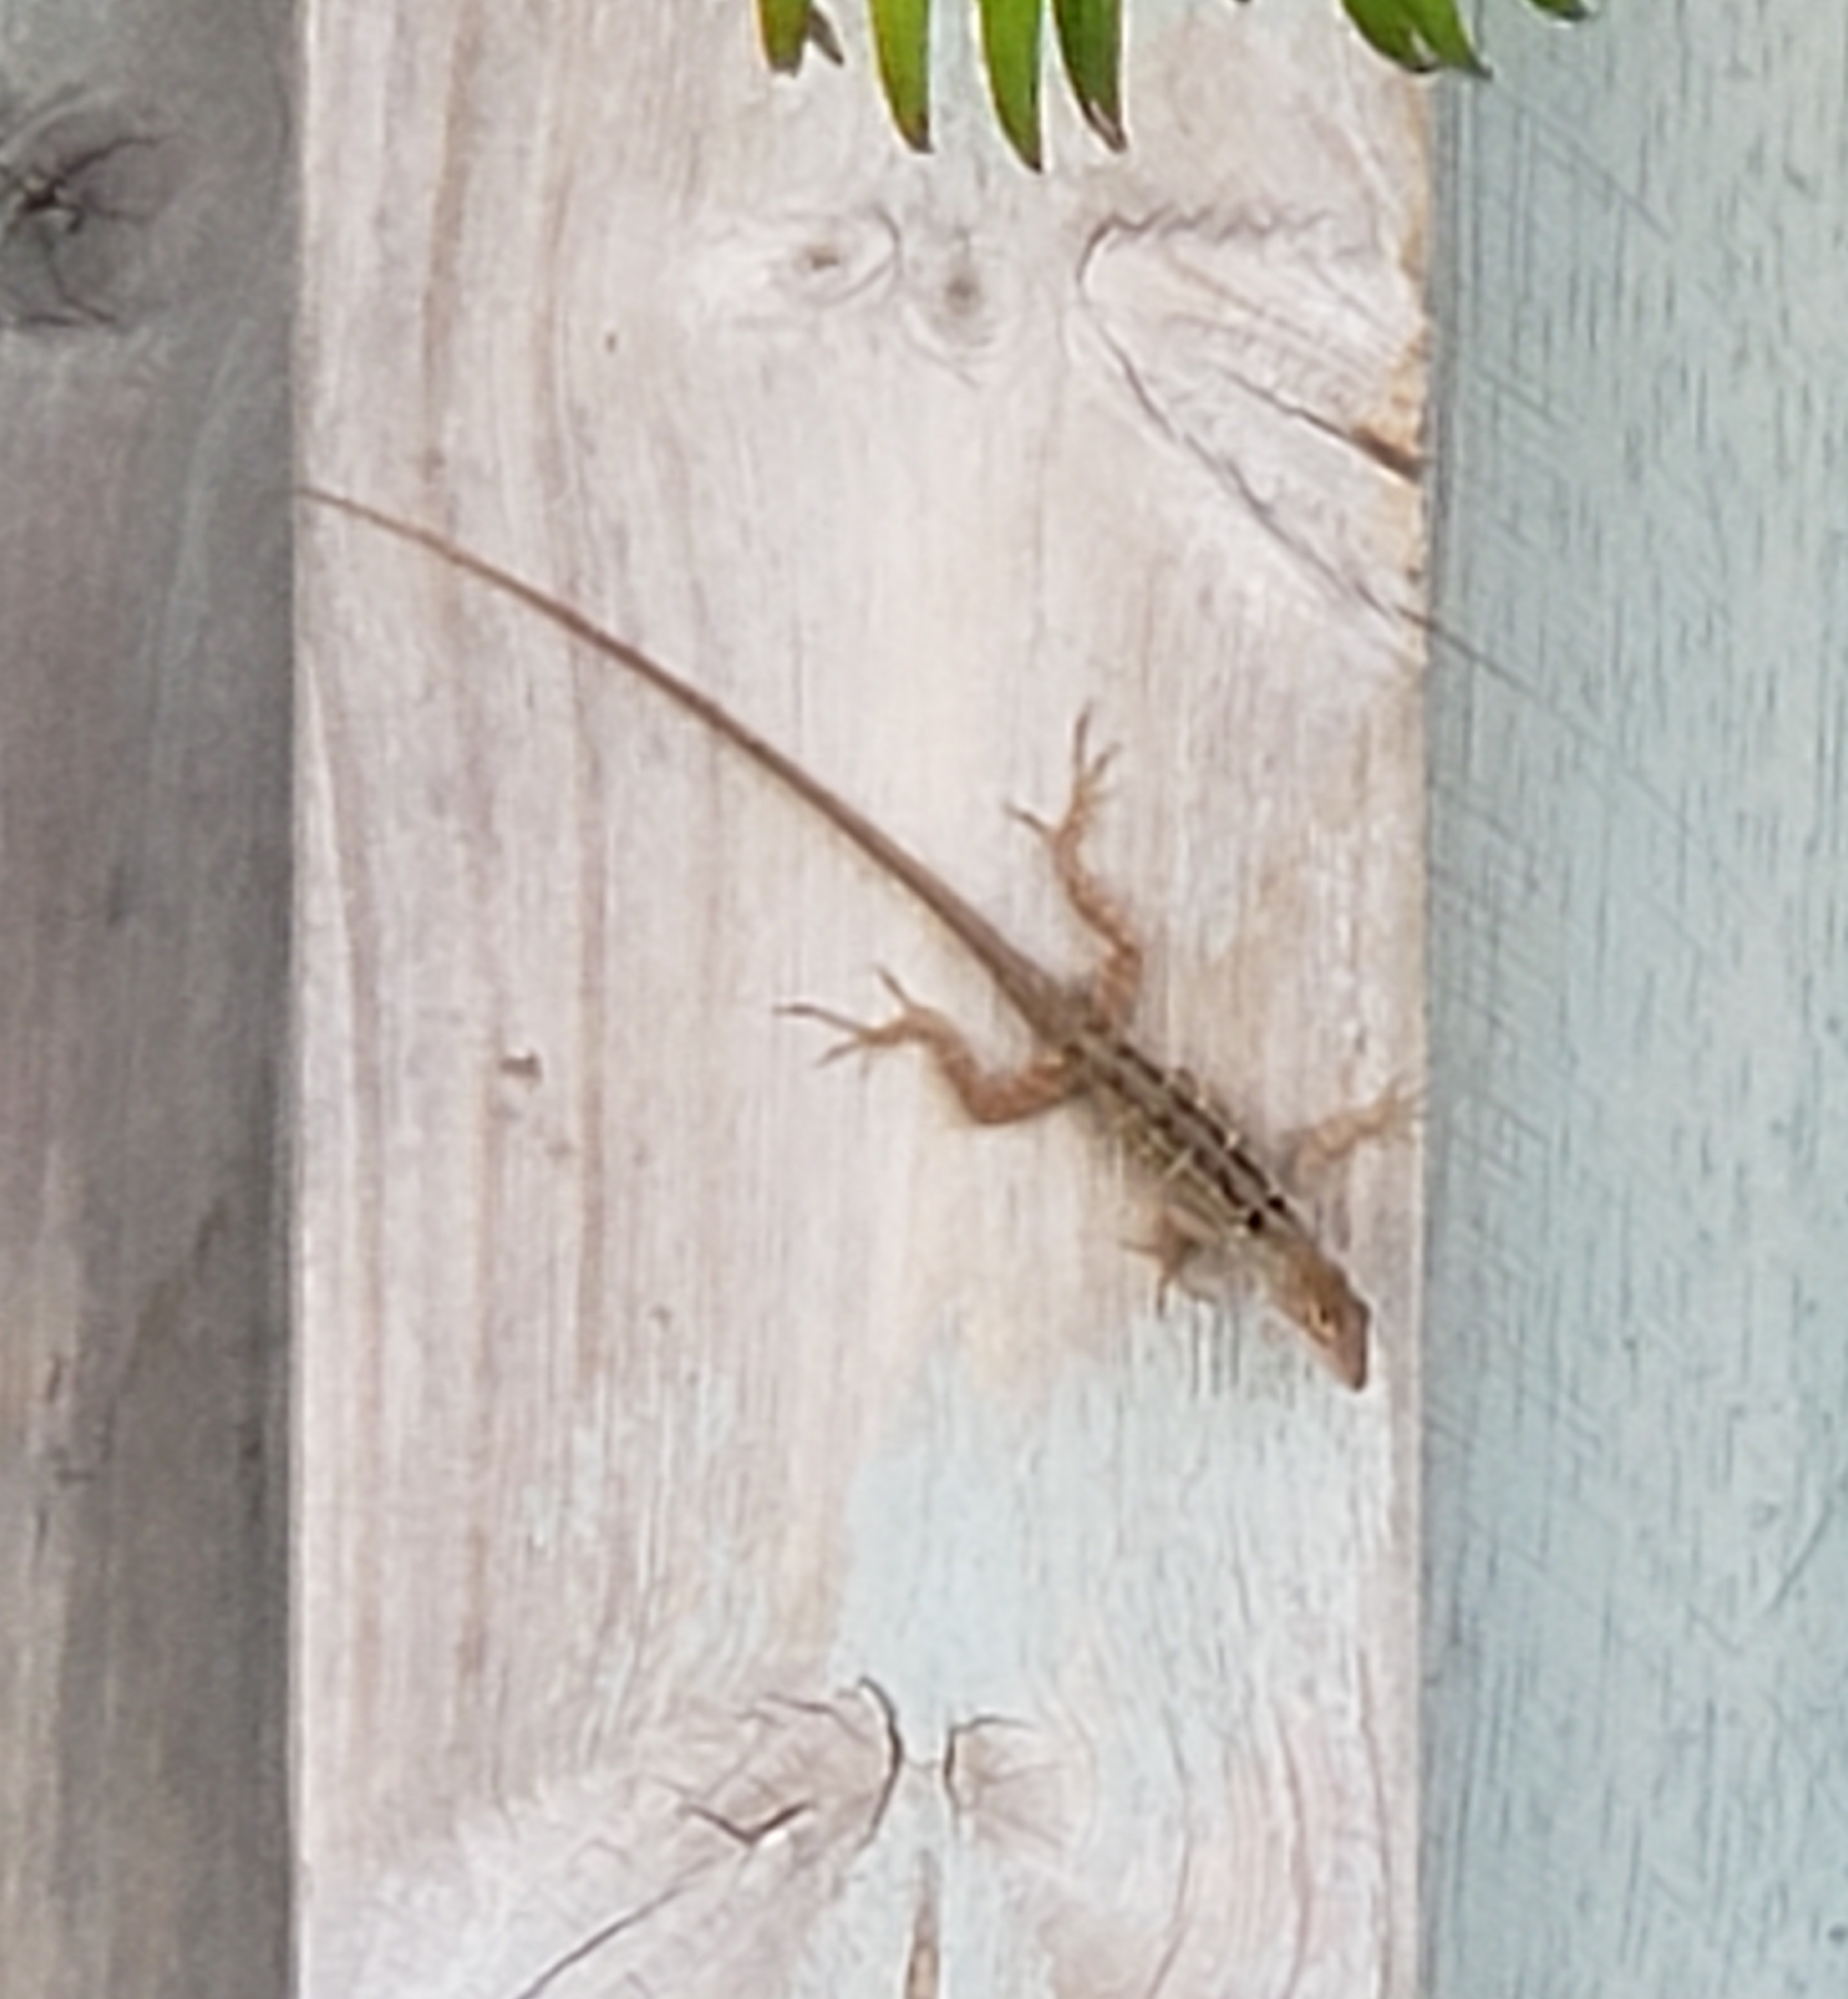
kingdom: Animalia
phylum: Chordata
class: Squamata
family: Dactyloidae
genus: Anolis
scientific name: Anolis sagrei
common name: Brown anole
